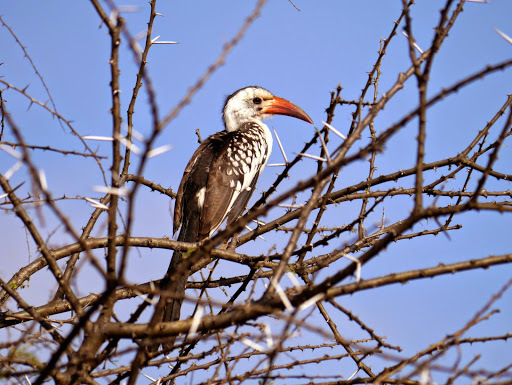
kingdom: Animalia
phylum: Chordata
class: Aves
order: Bucerotiformes
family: Bucerotidae
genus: Tockus
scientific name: Tockus erythrorhynchus
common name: Northern red-billed hornbill
